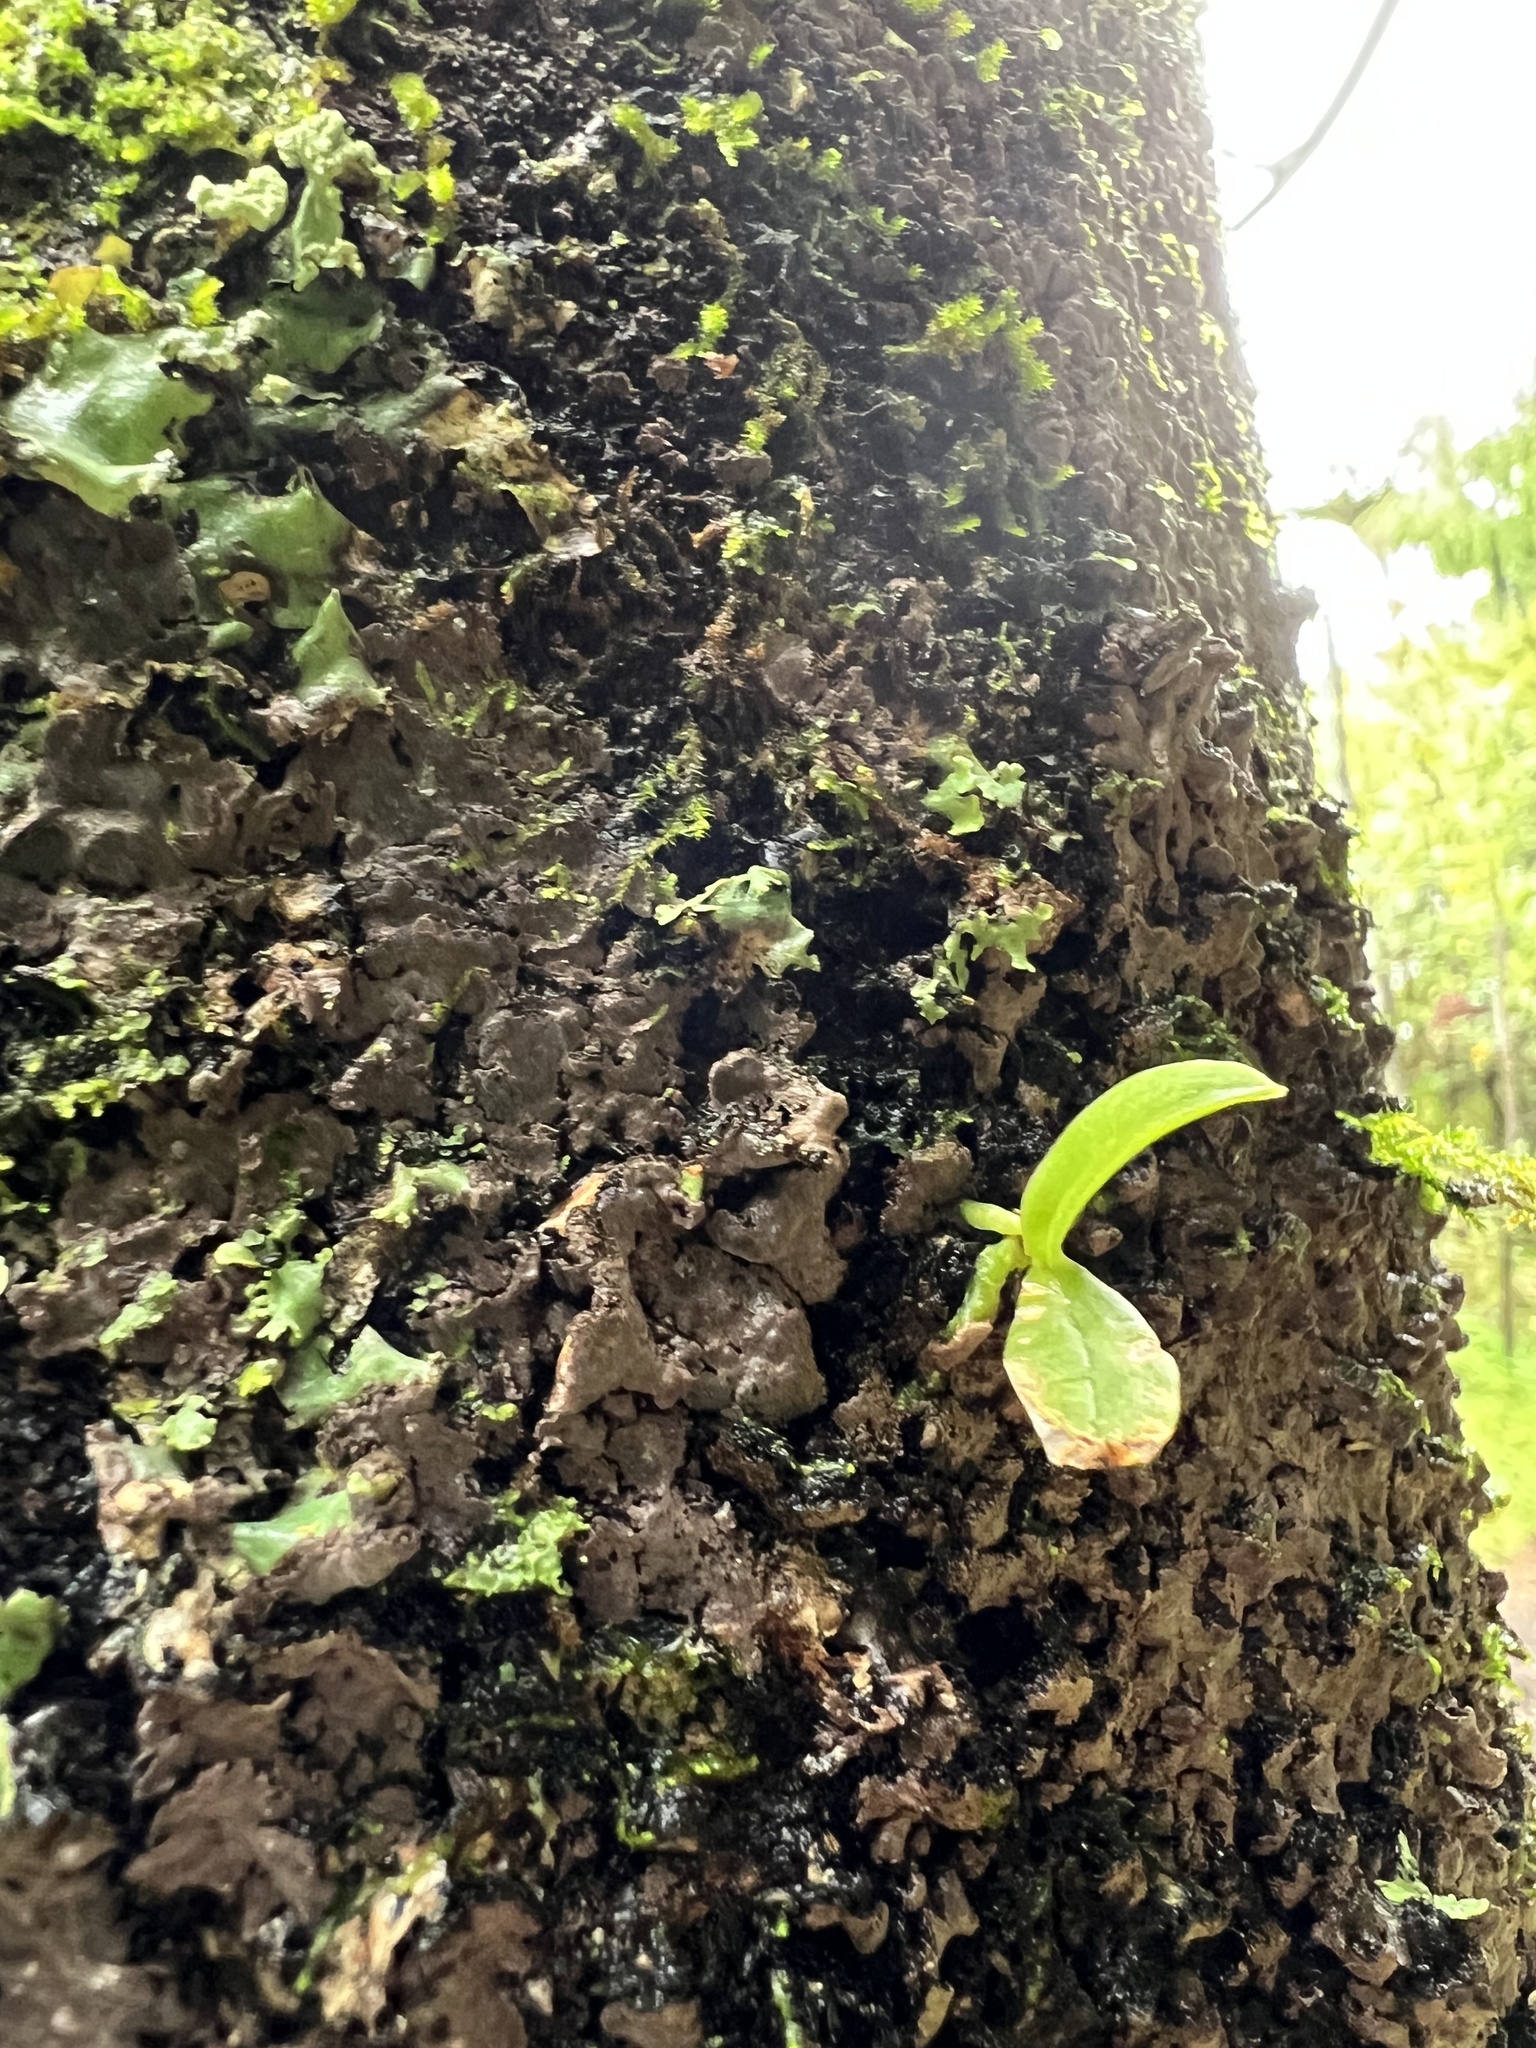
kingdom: Plantae
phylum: Tracheophyta
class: Liliopsida
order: Asparagales
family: Orchidaceae
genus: Drymoanthus
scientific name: Drymoanthus adversus
